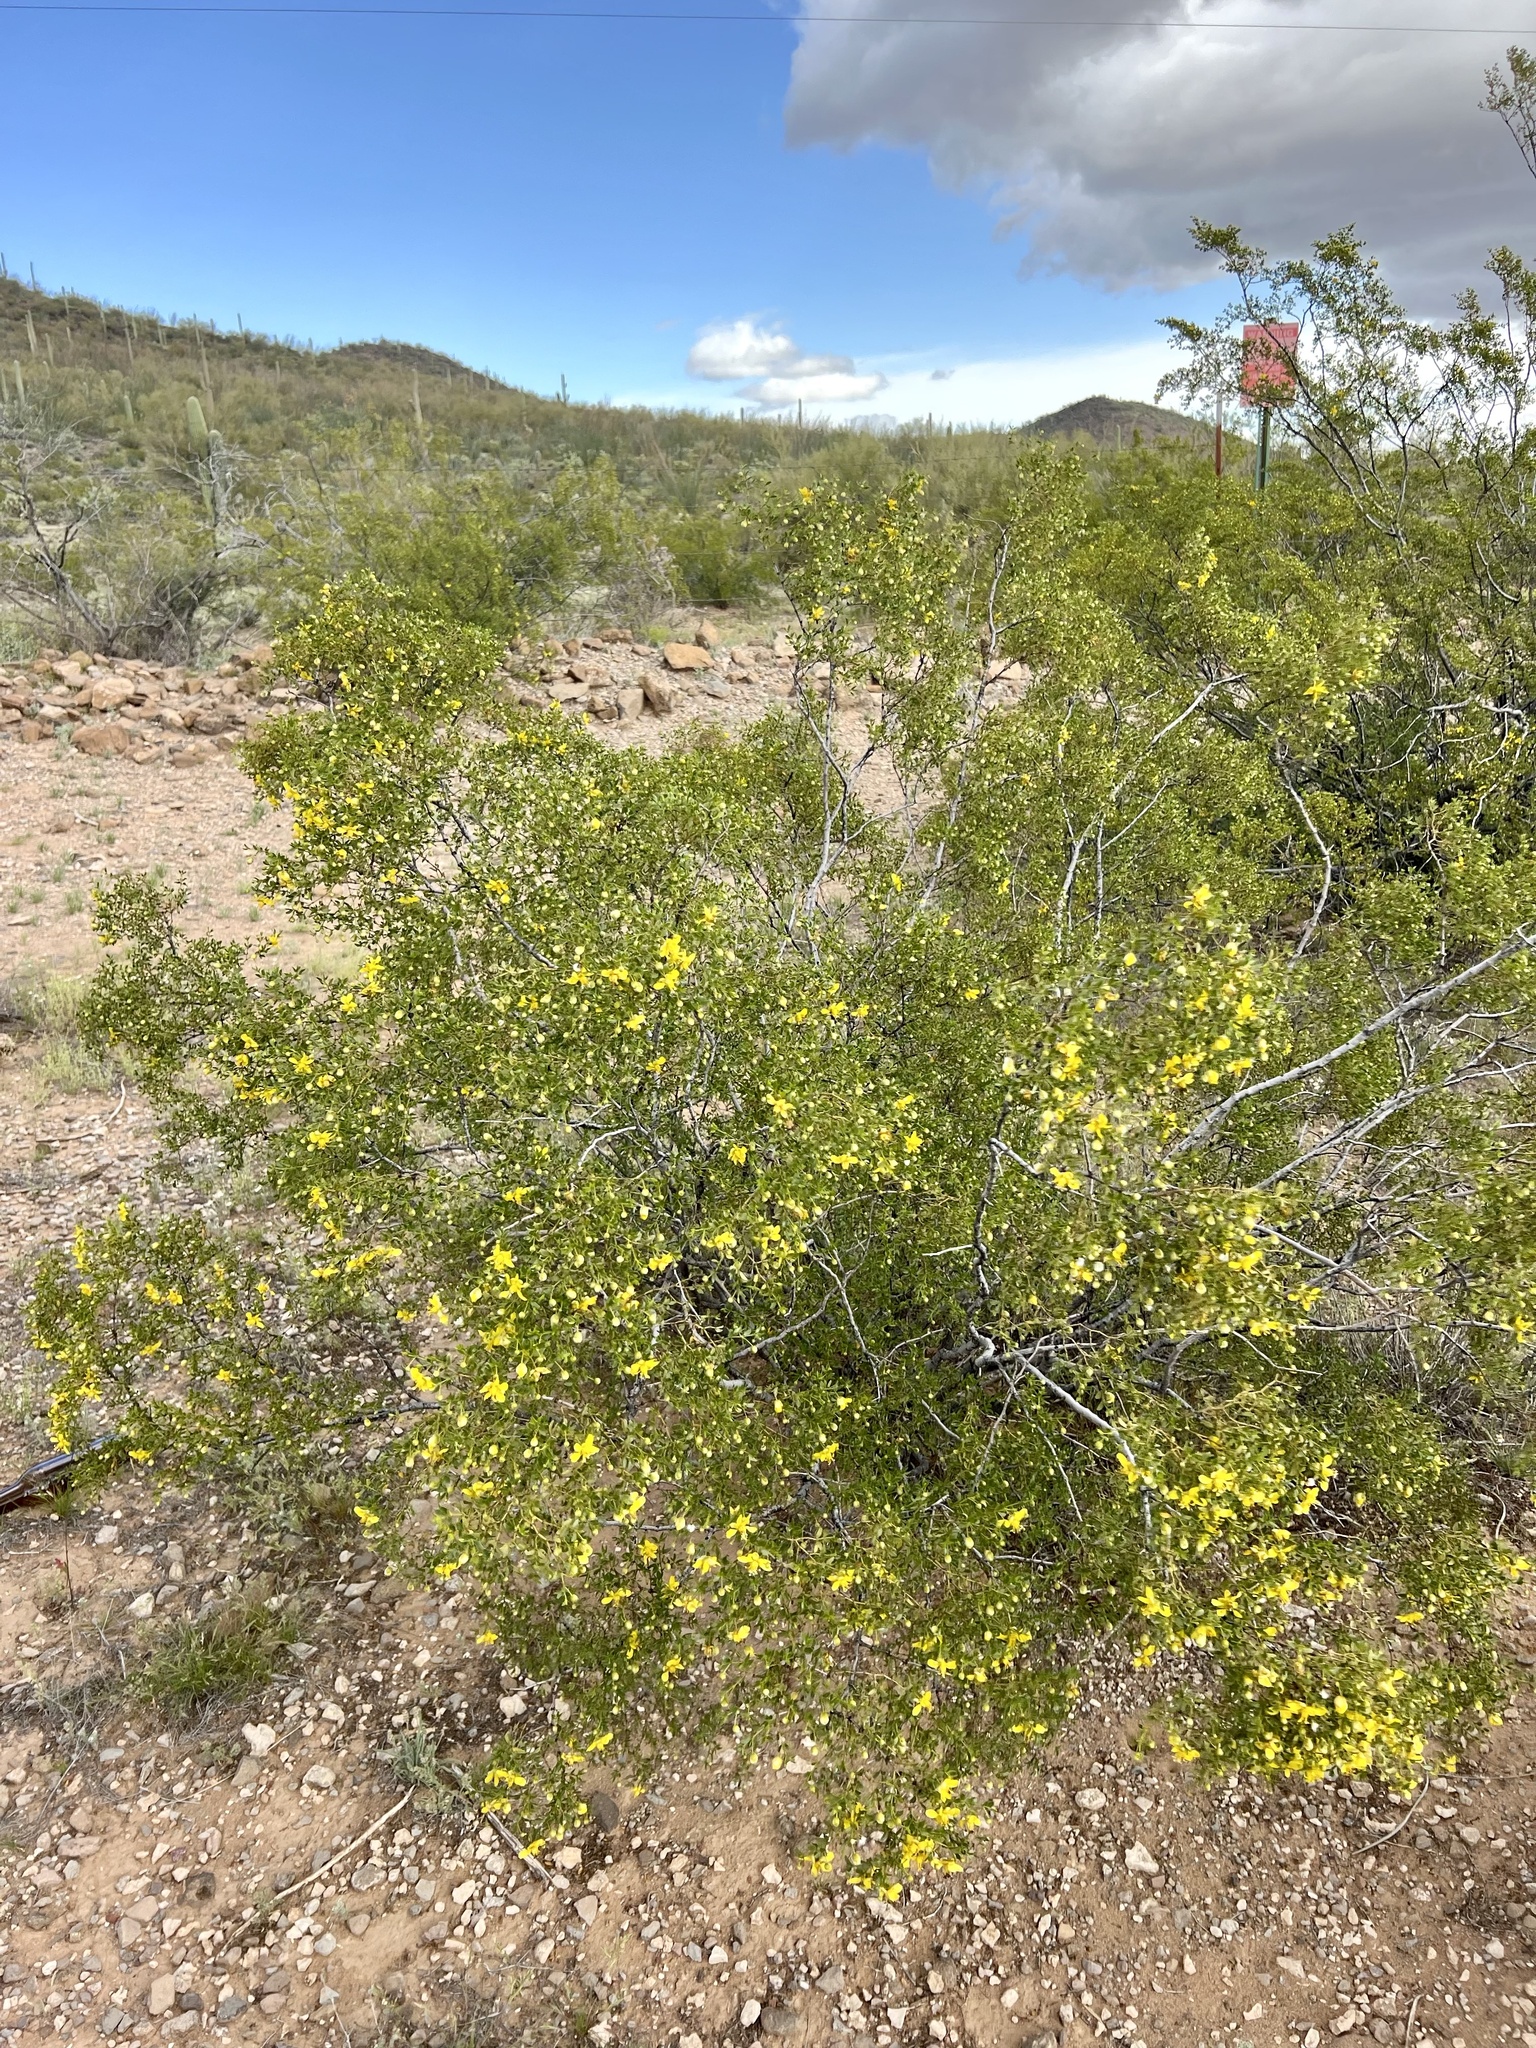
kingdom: Plantae
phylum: Tracheophyta
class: Magnoliopsida
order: Zygophyllales
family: Zygophyllaceae
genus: Larrea
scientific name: Larrea tridentata
